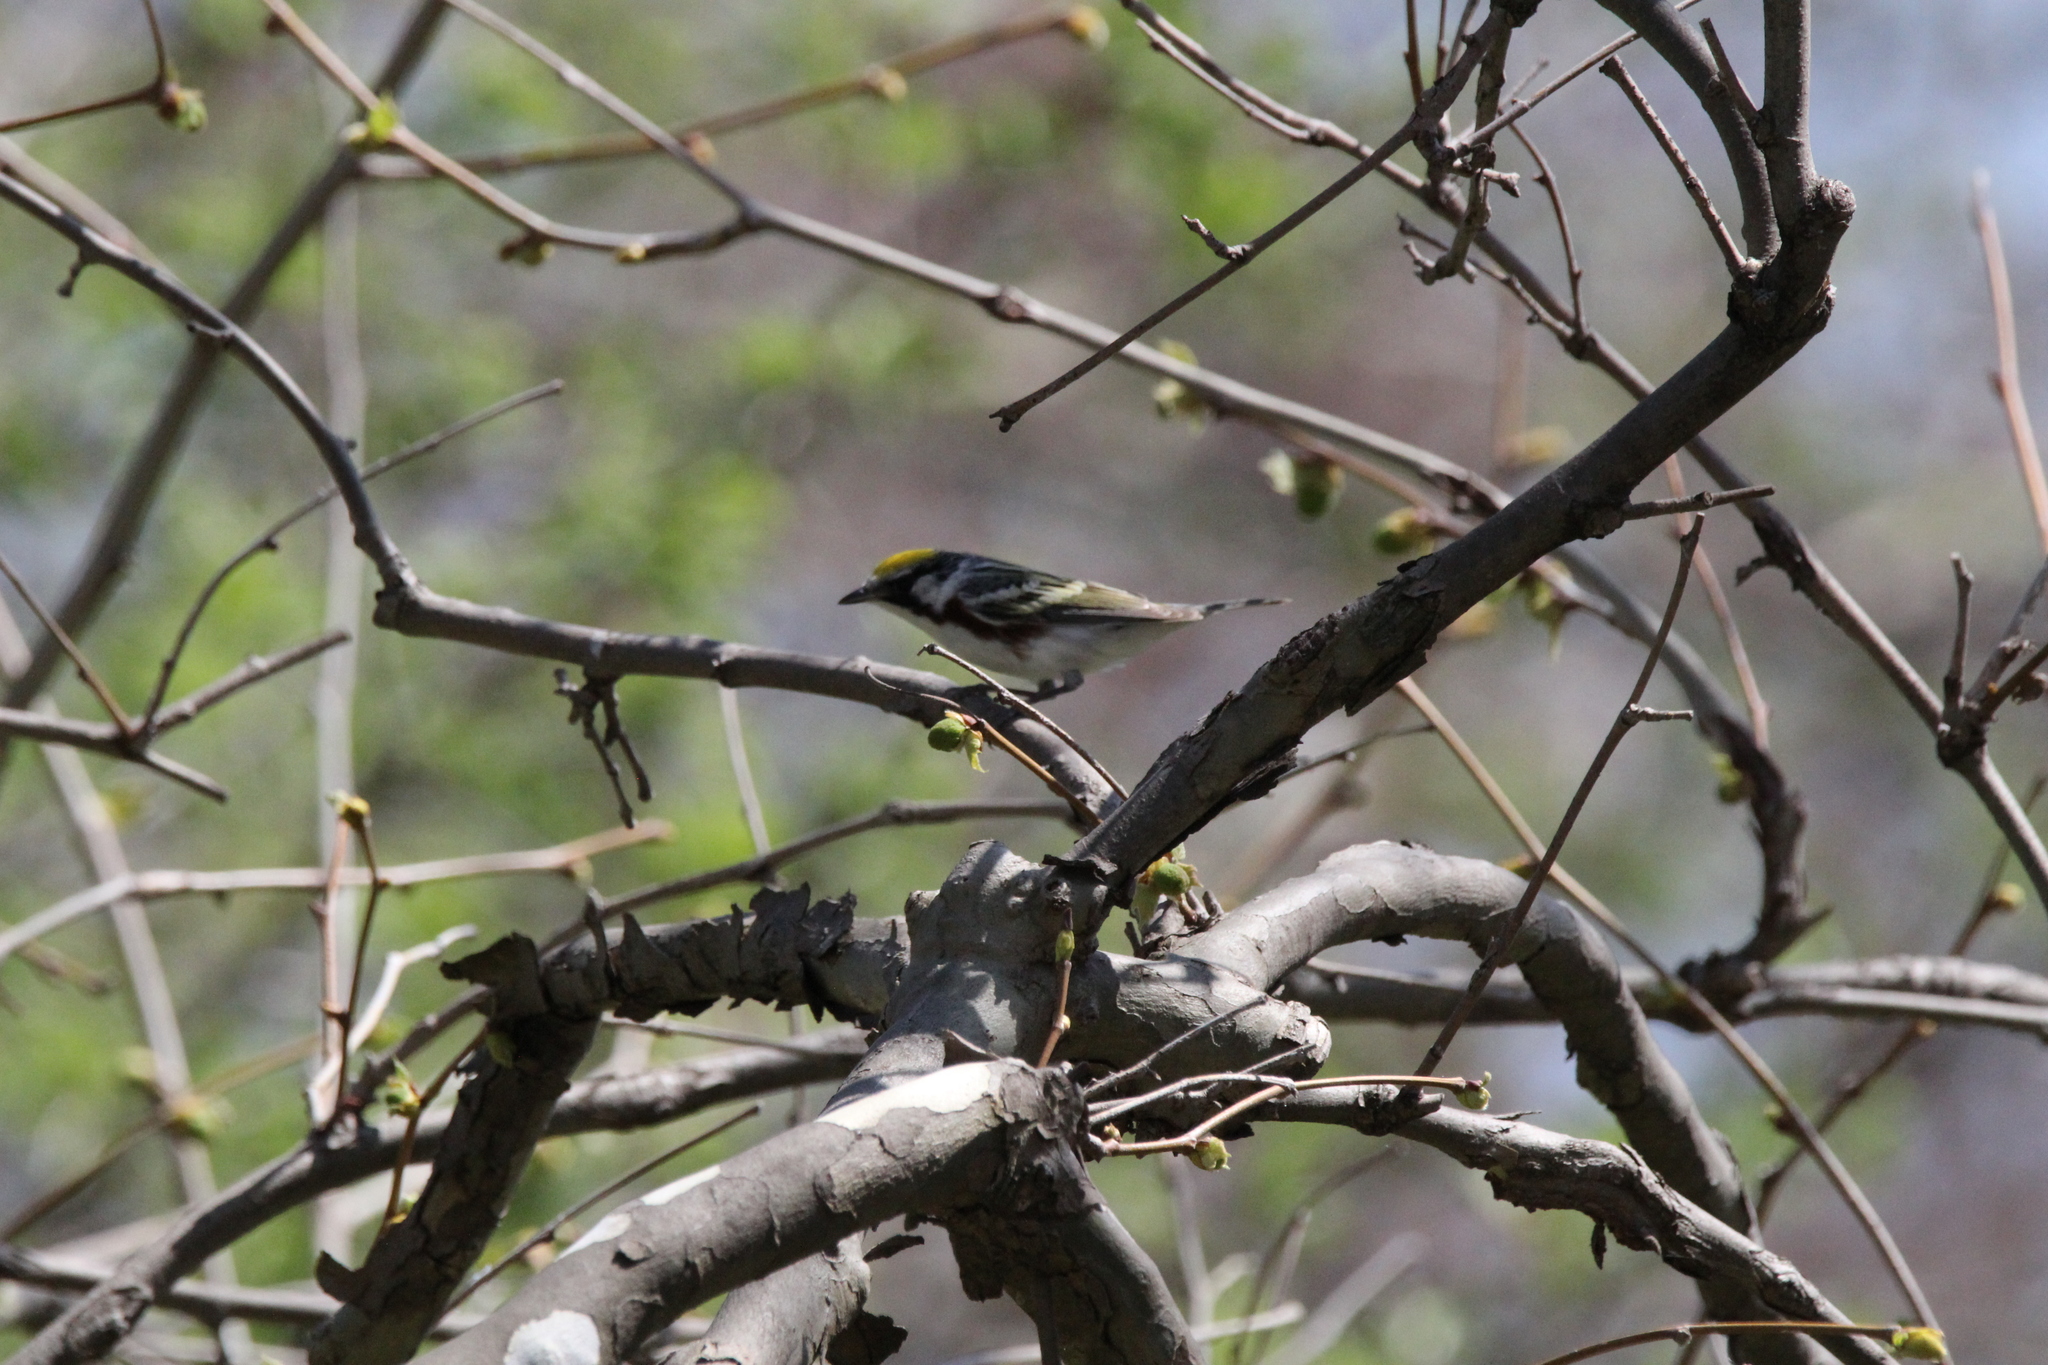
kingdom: Animalia
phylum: Chordata
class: Aves
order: Passeriformes
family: Parulidae
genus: Setophaga
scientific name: Setophaga pensylvanica
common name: Chestnut-sided warbler
